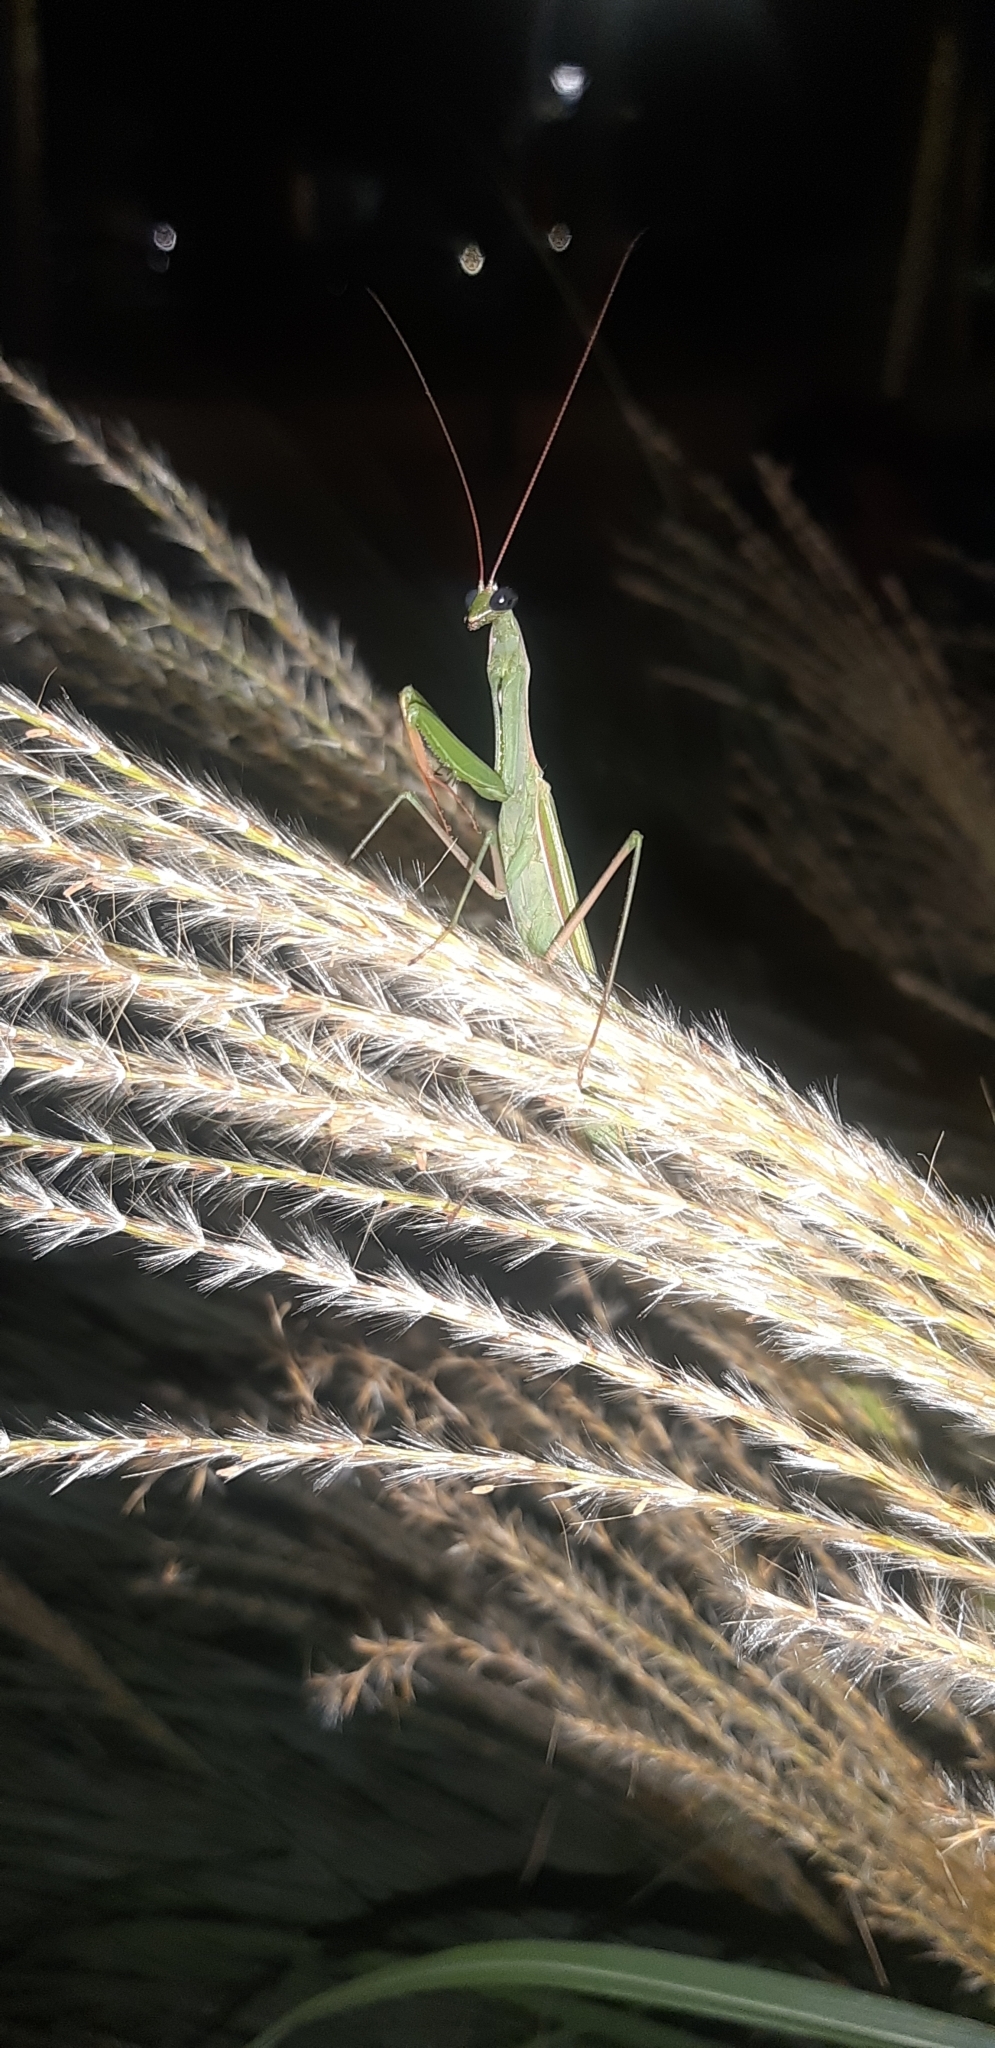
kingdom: Animalia
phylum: Arthropoda
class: Insecta
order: Mantodea
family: Mantidae
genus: Mantis
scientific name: Mantis religiosa
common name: Praying mantis
